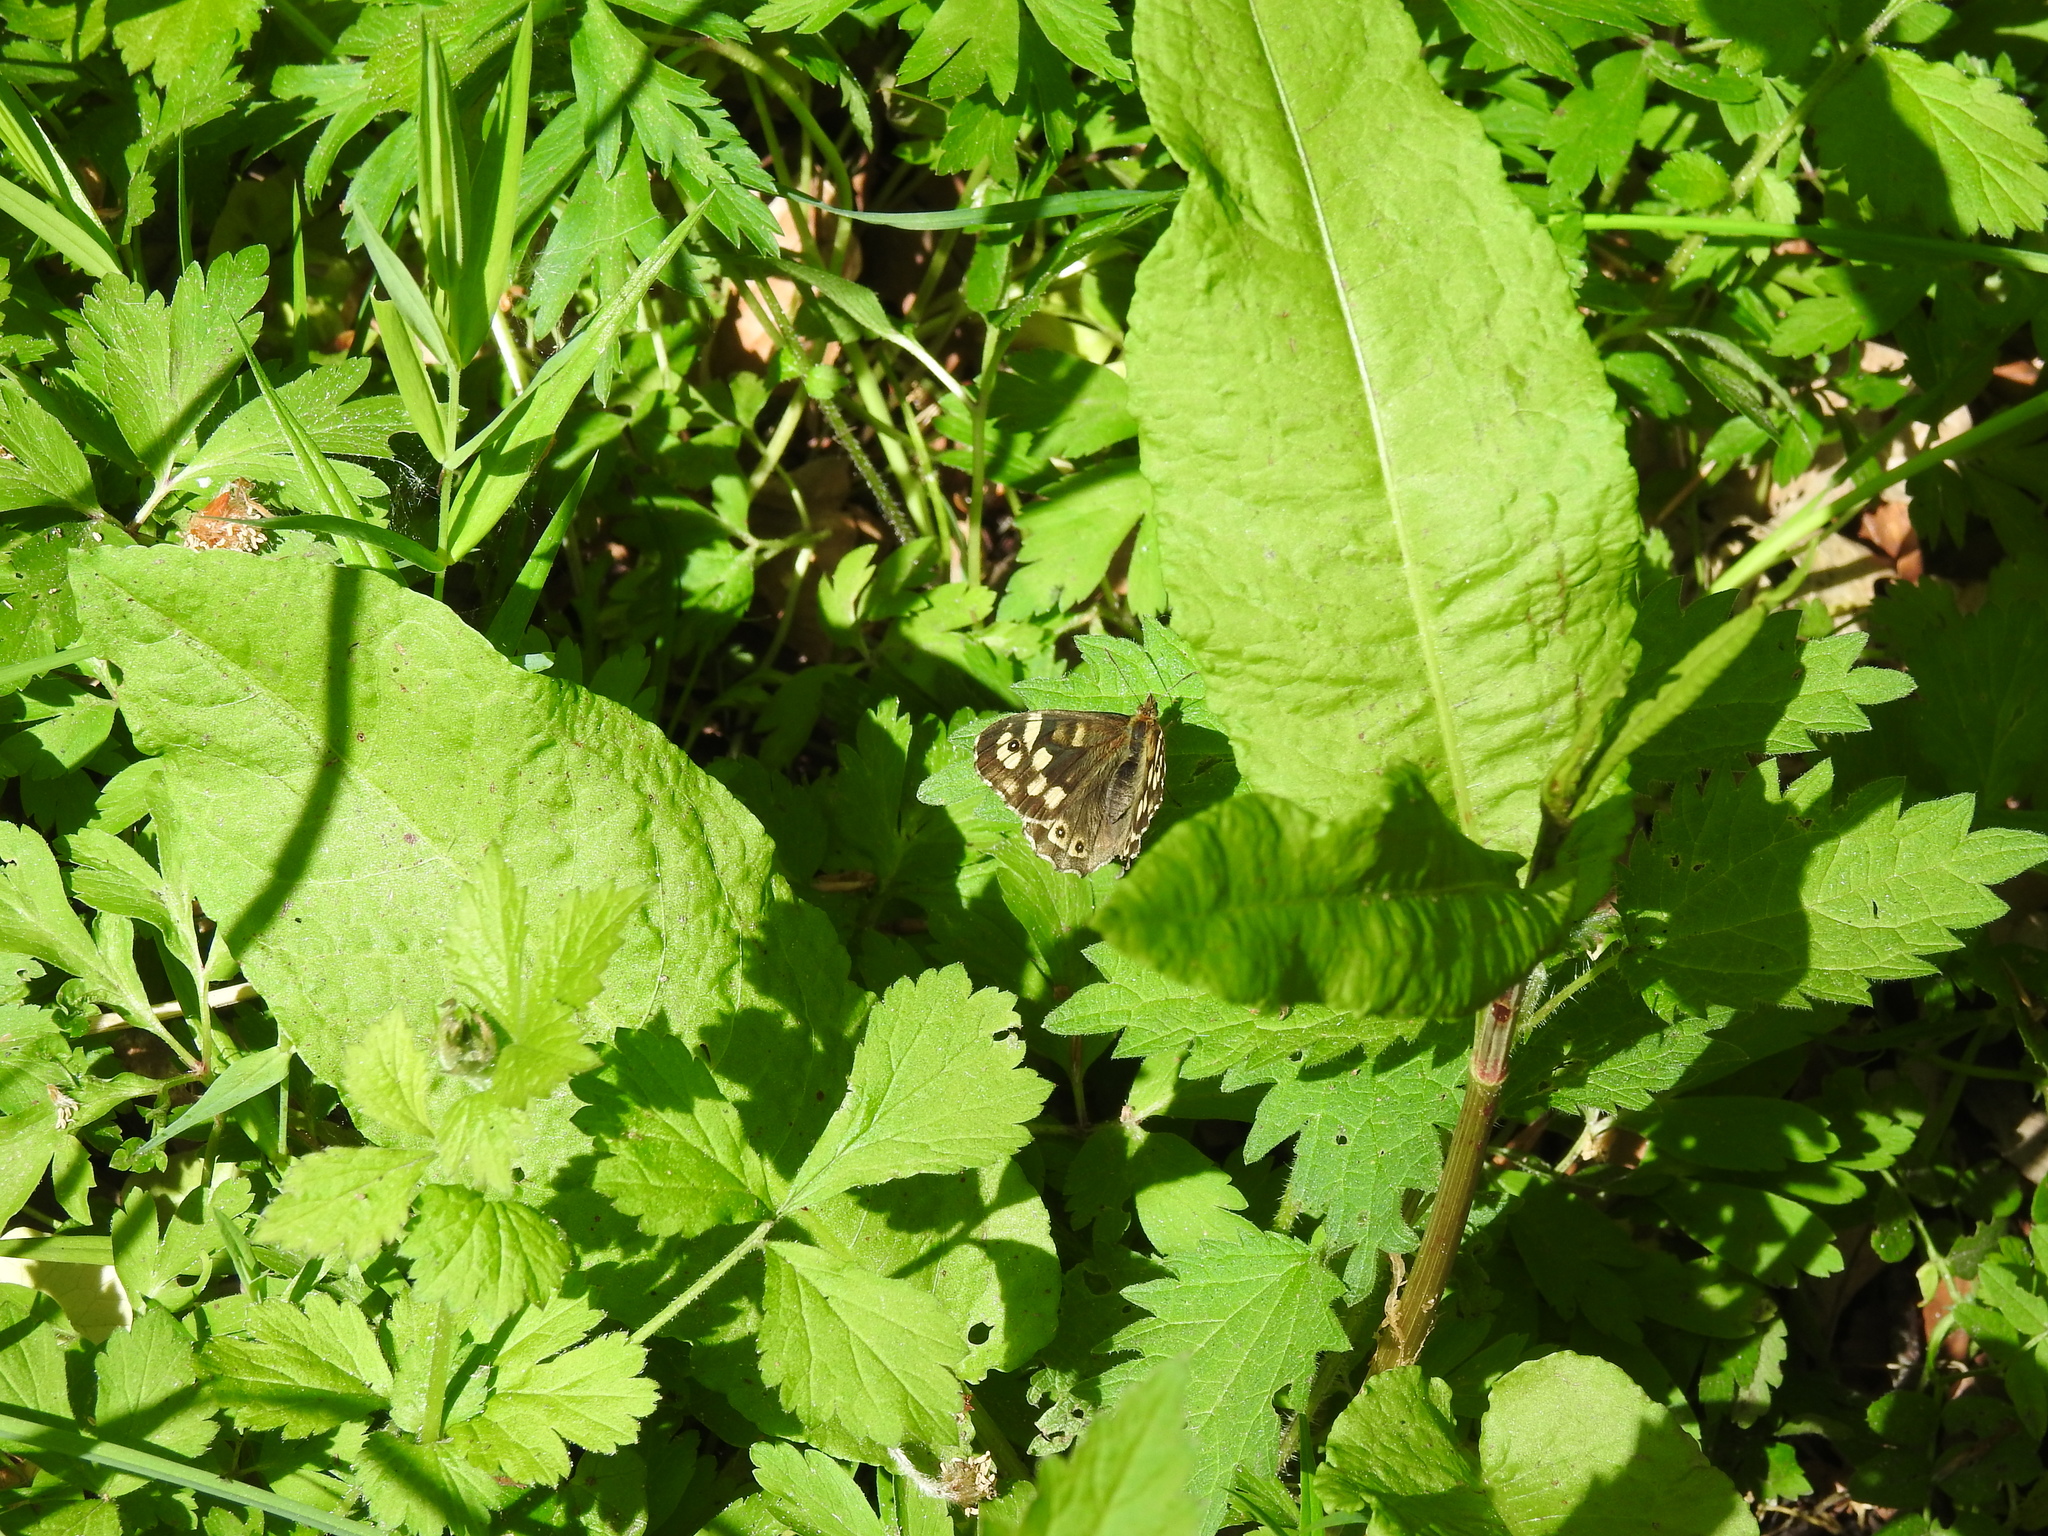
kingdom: Animalia
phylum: Arthropoda
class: Insecta
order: Lepidoptera
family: Nymphalidae
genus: Pararge
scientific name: Pararge aegeria
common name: Speckled wood
